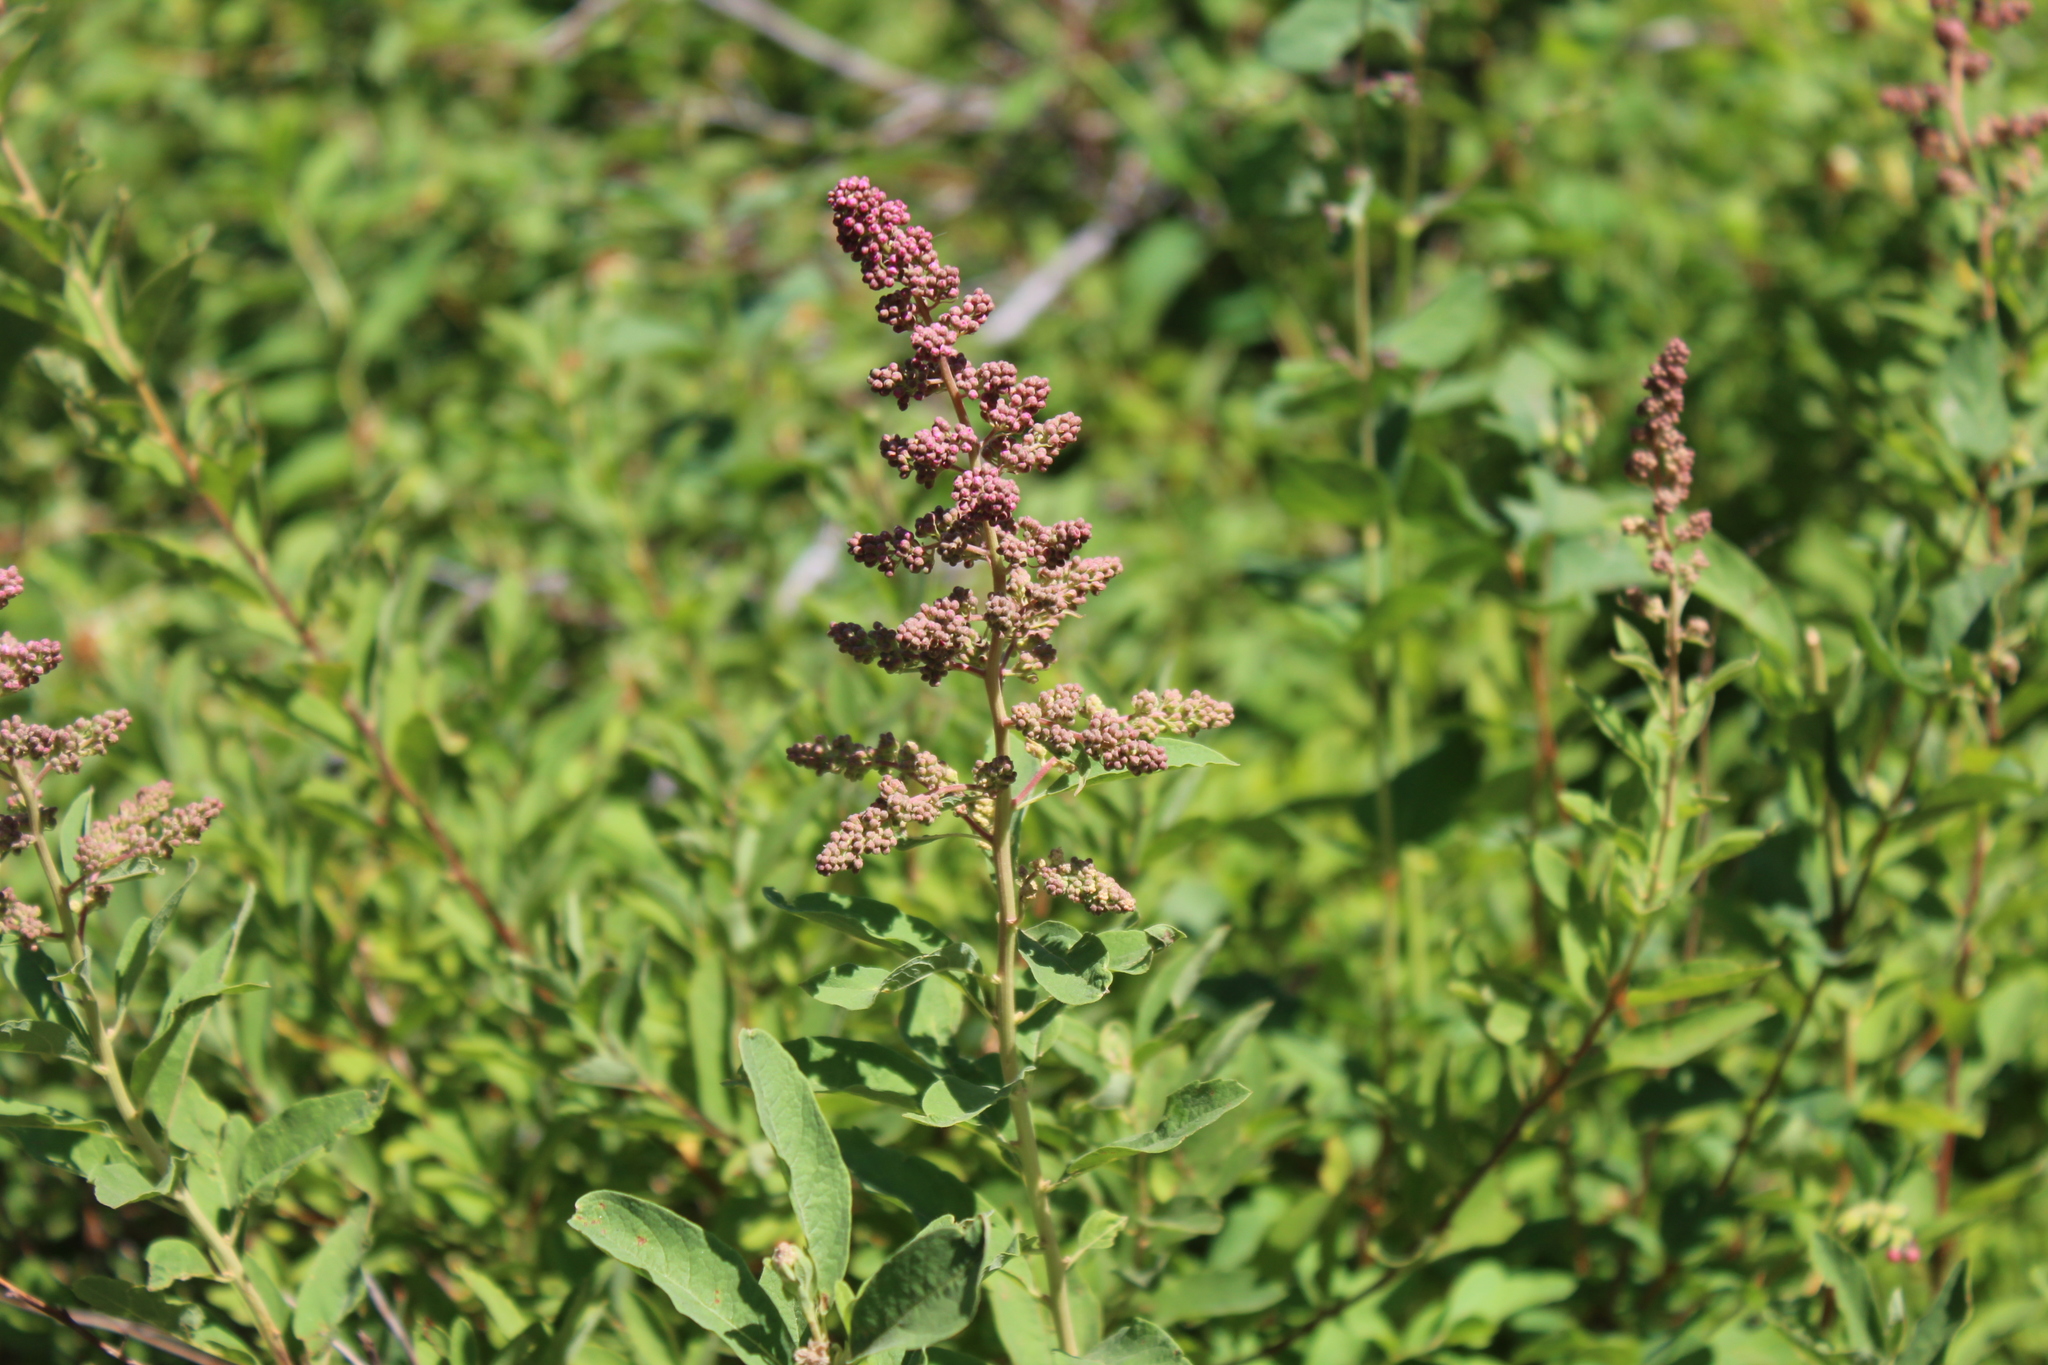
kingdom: Plantae
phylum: Tracheophyta
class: Magnoliopsida
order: Rosales
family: Rosaceae
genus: Spiraea
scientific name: Spiraea douglasii
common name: Steeplebush
